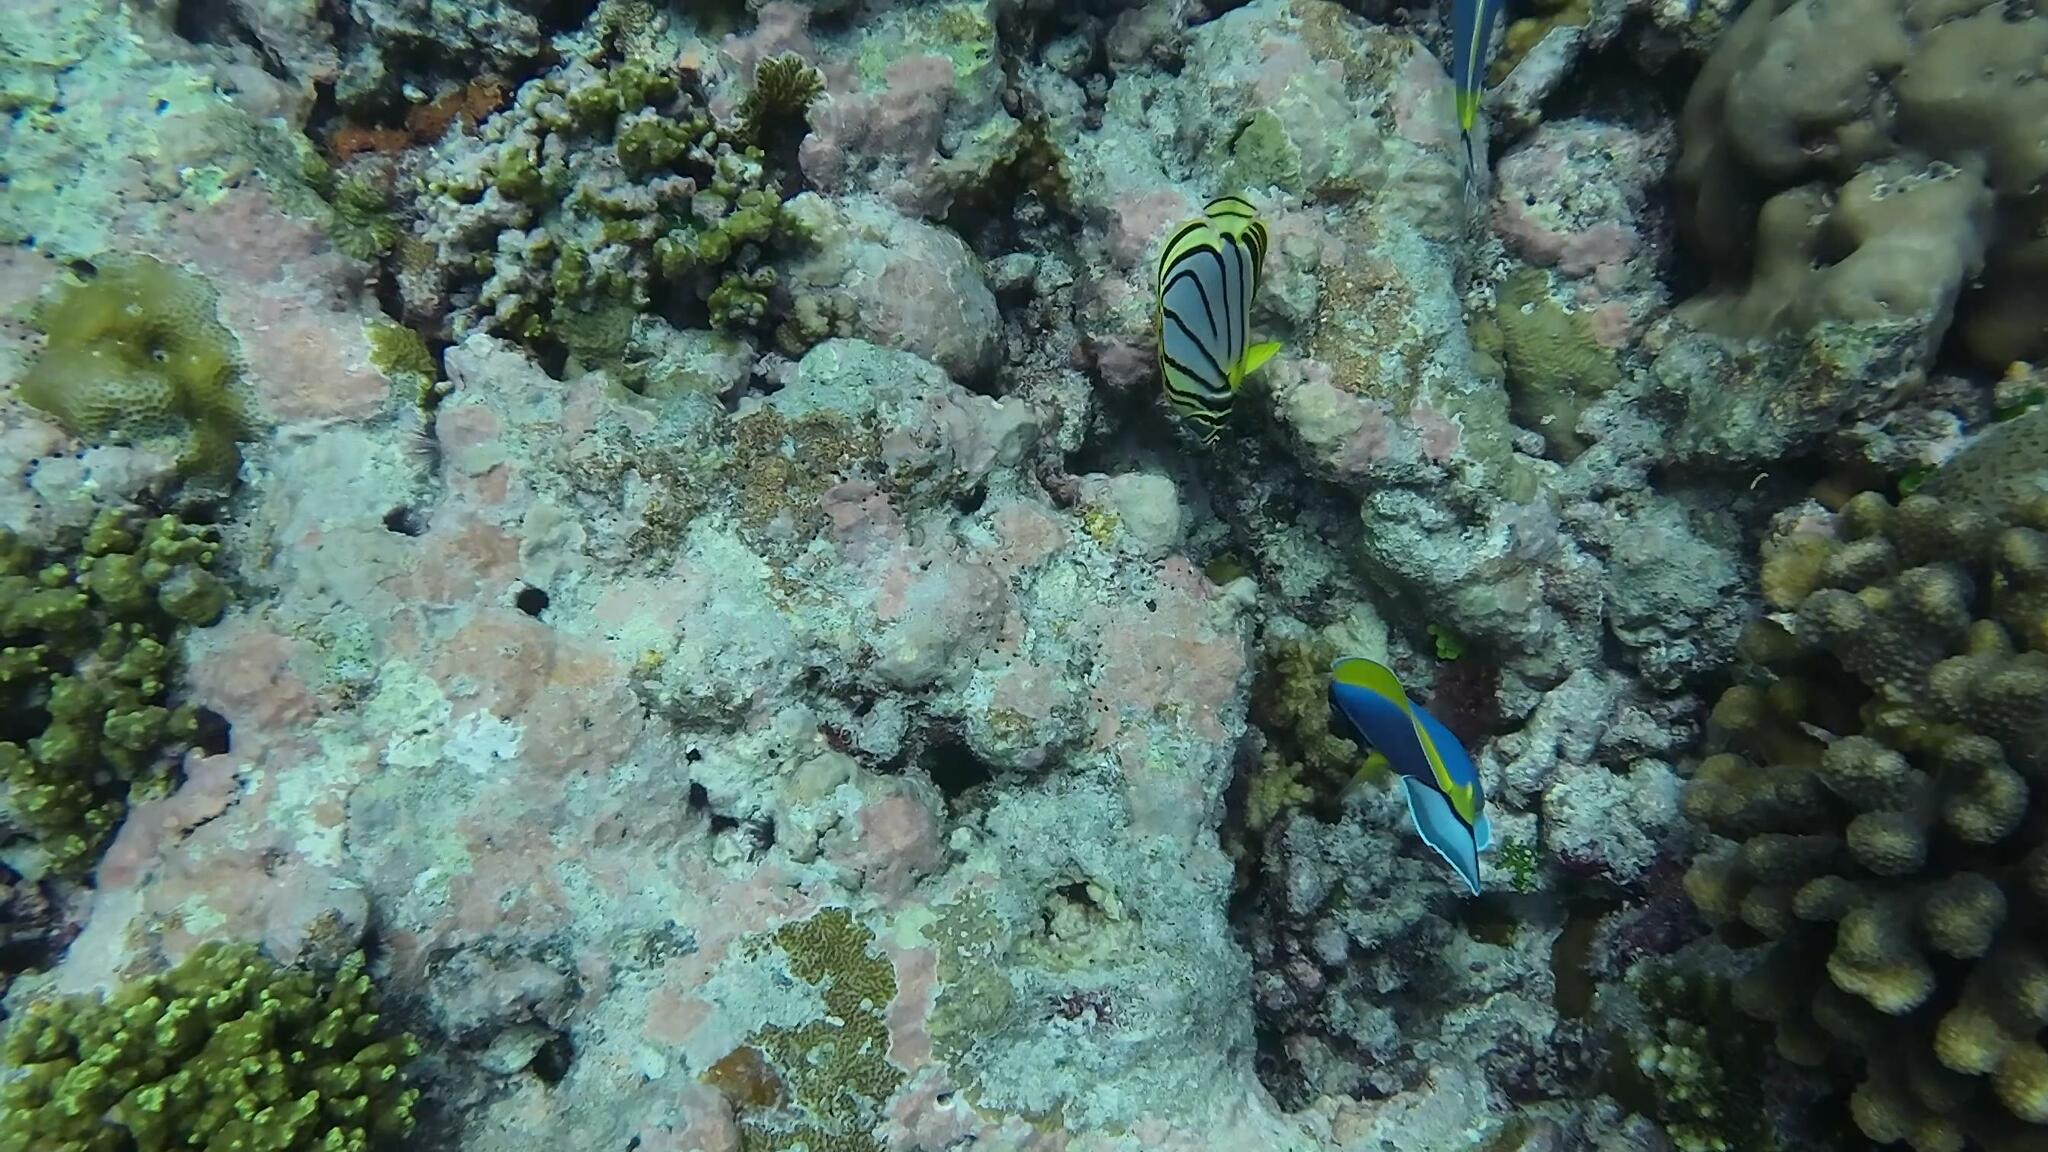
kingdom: Animalia
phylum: Chordata
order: Perciformes
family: Chaetodontidae
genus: Chaetodon
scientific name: Chaetodon meyeri
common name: Meyer's butterflyfish
